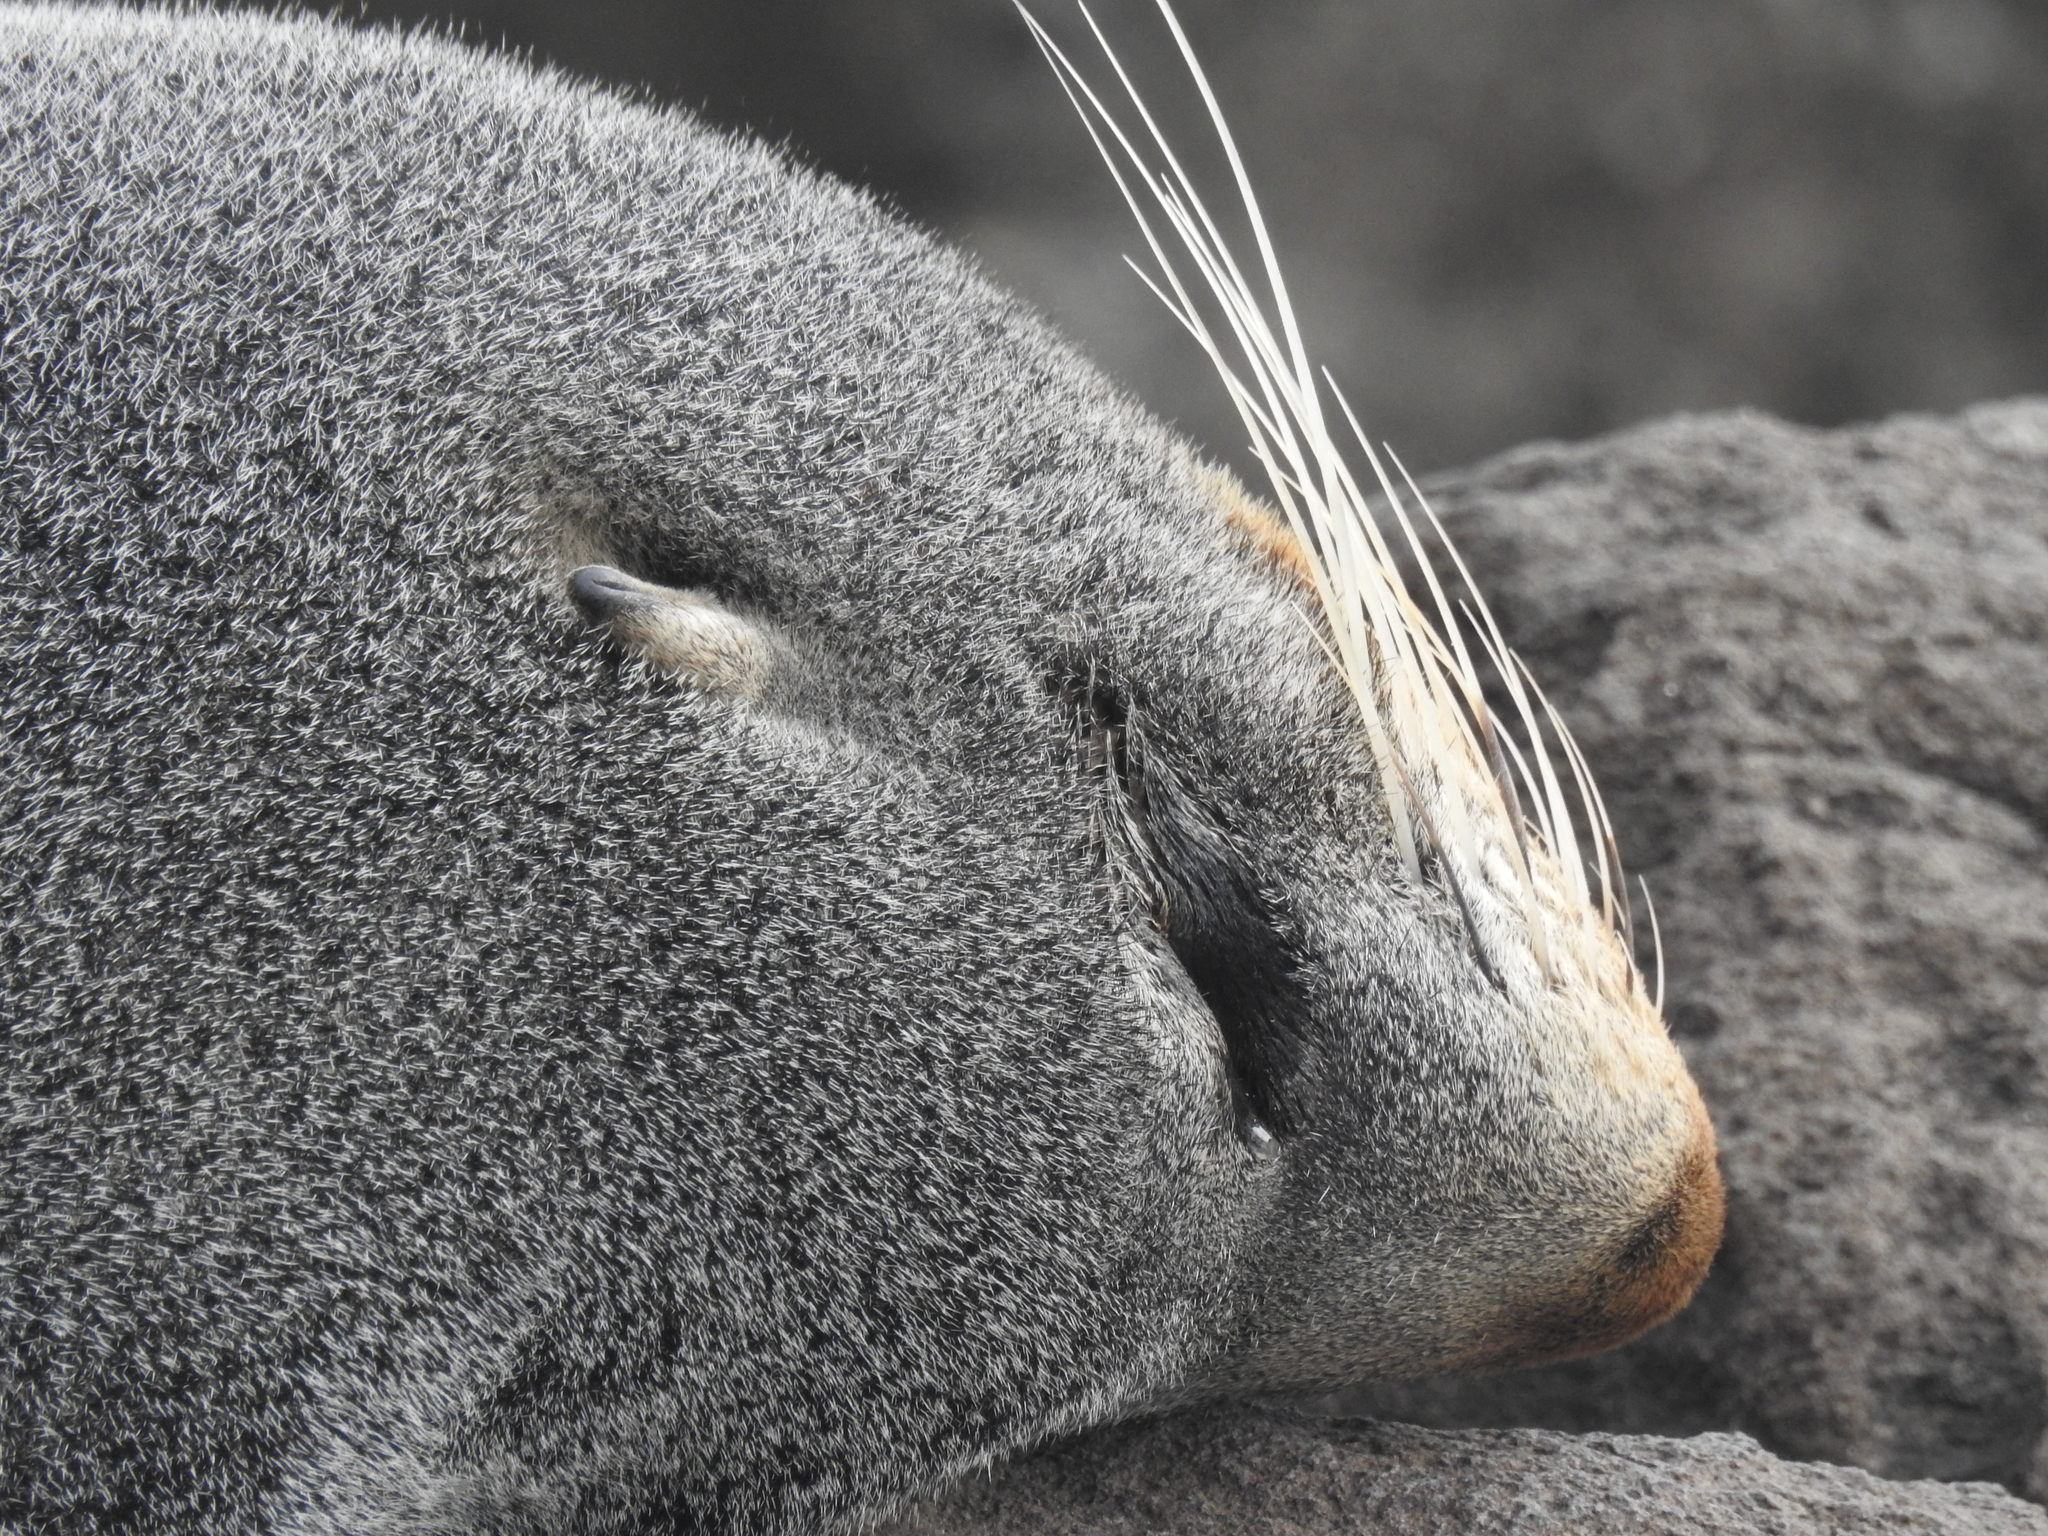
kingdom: Animalia
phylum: Chordata
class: Mammalia
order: Carnivora
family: Otariidae
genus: Arctocephalus
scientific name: Arctocephalus forsteri
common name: New zealand fur seal
